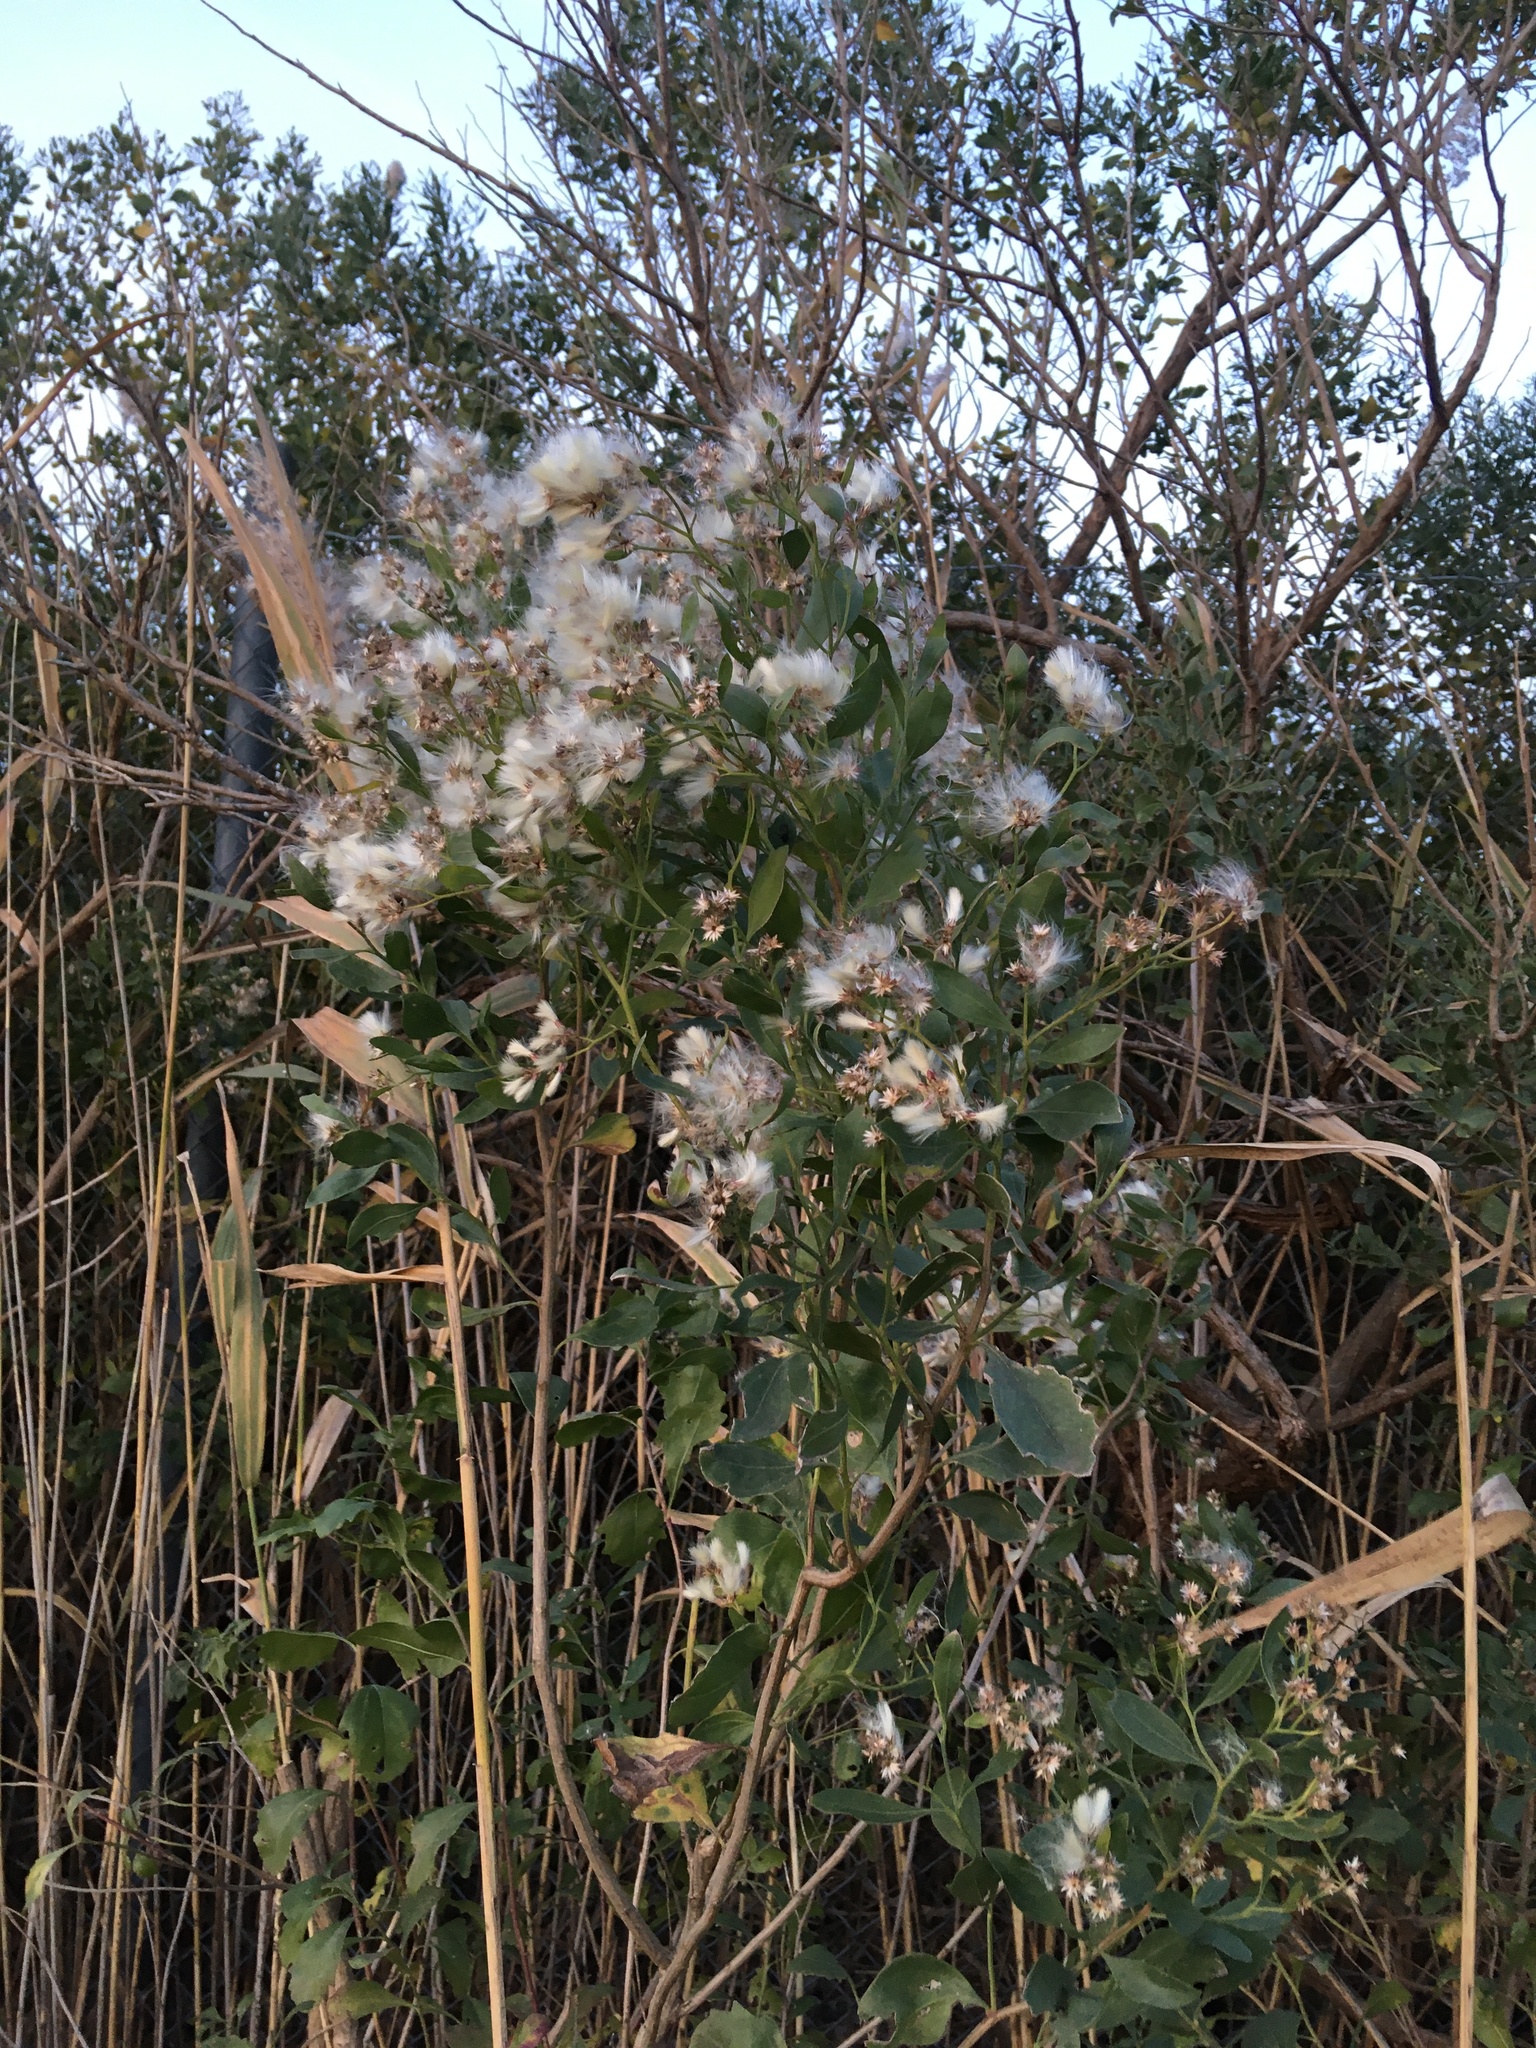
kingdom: Plantae
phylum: Tracheophyta
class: Magnoliopsida
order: Asterales
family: Asteraceae
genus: Baccharis
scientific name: Baccharis halimifolia
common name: Eastern baccharis
